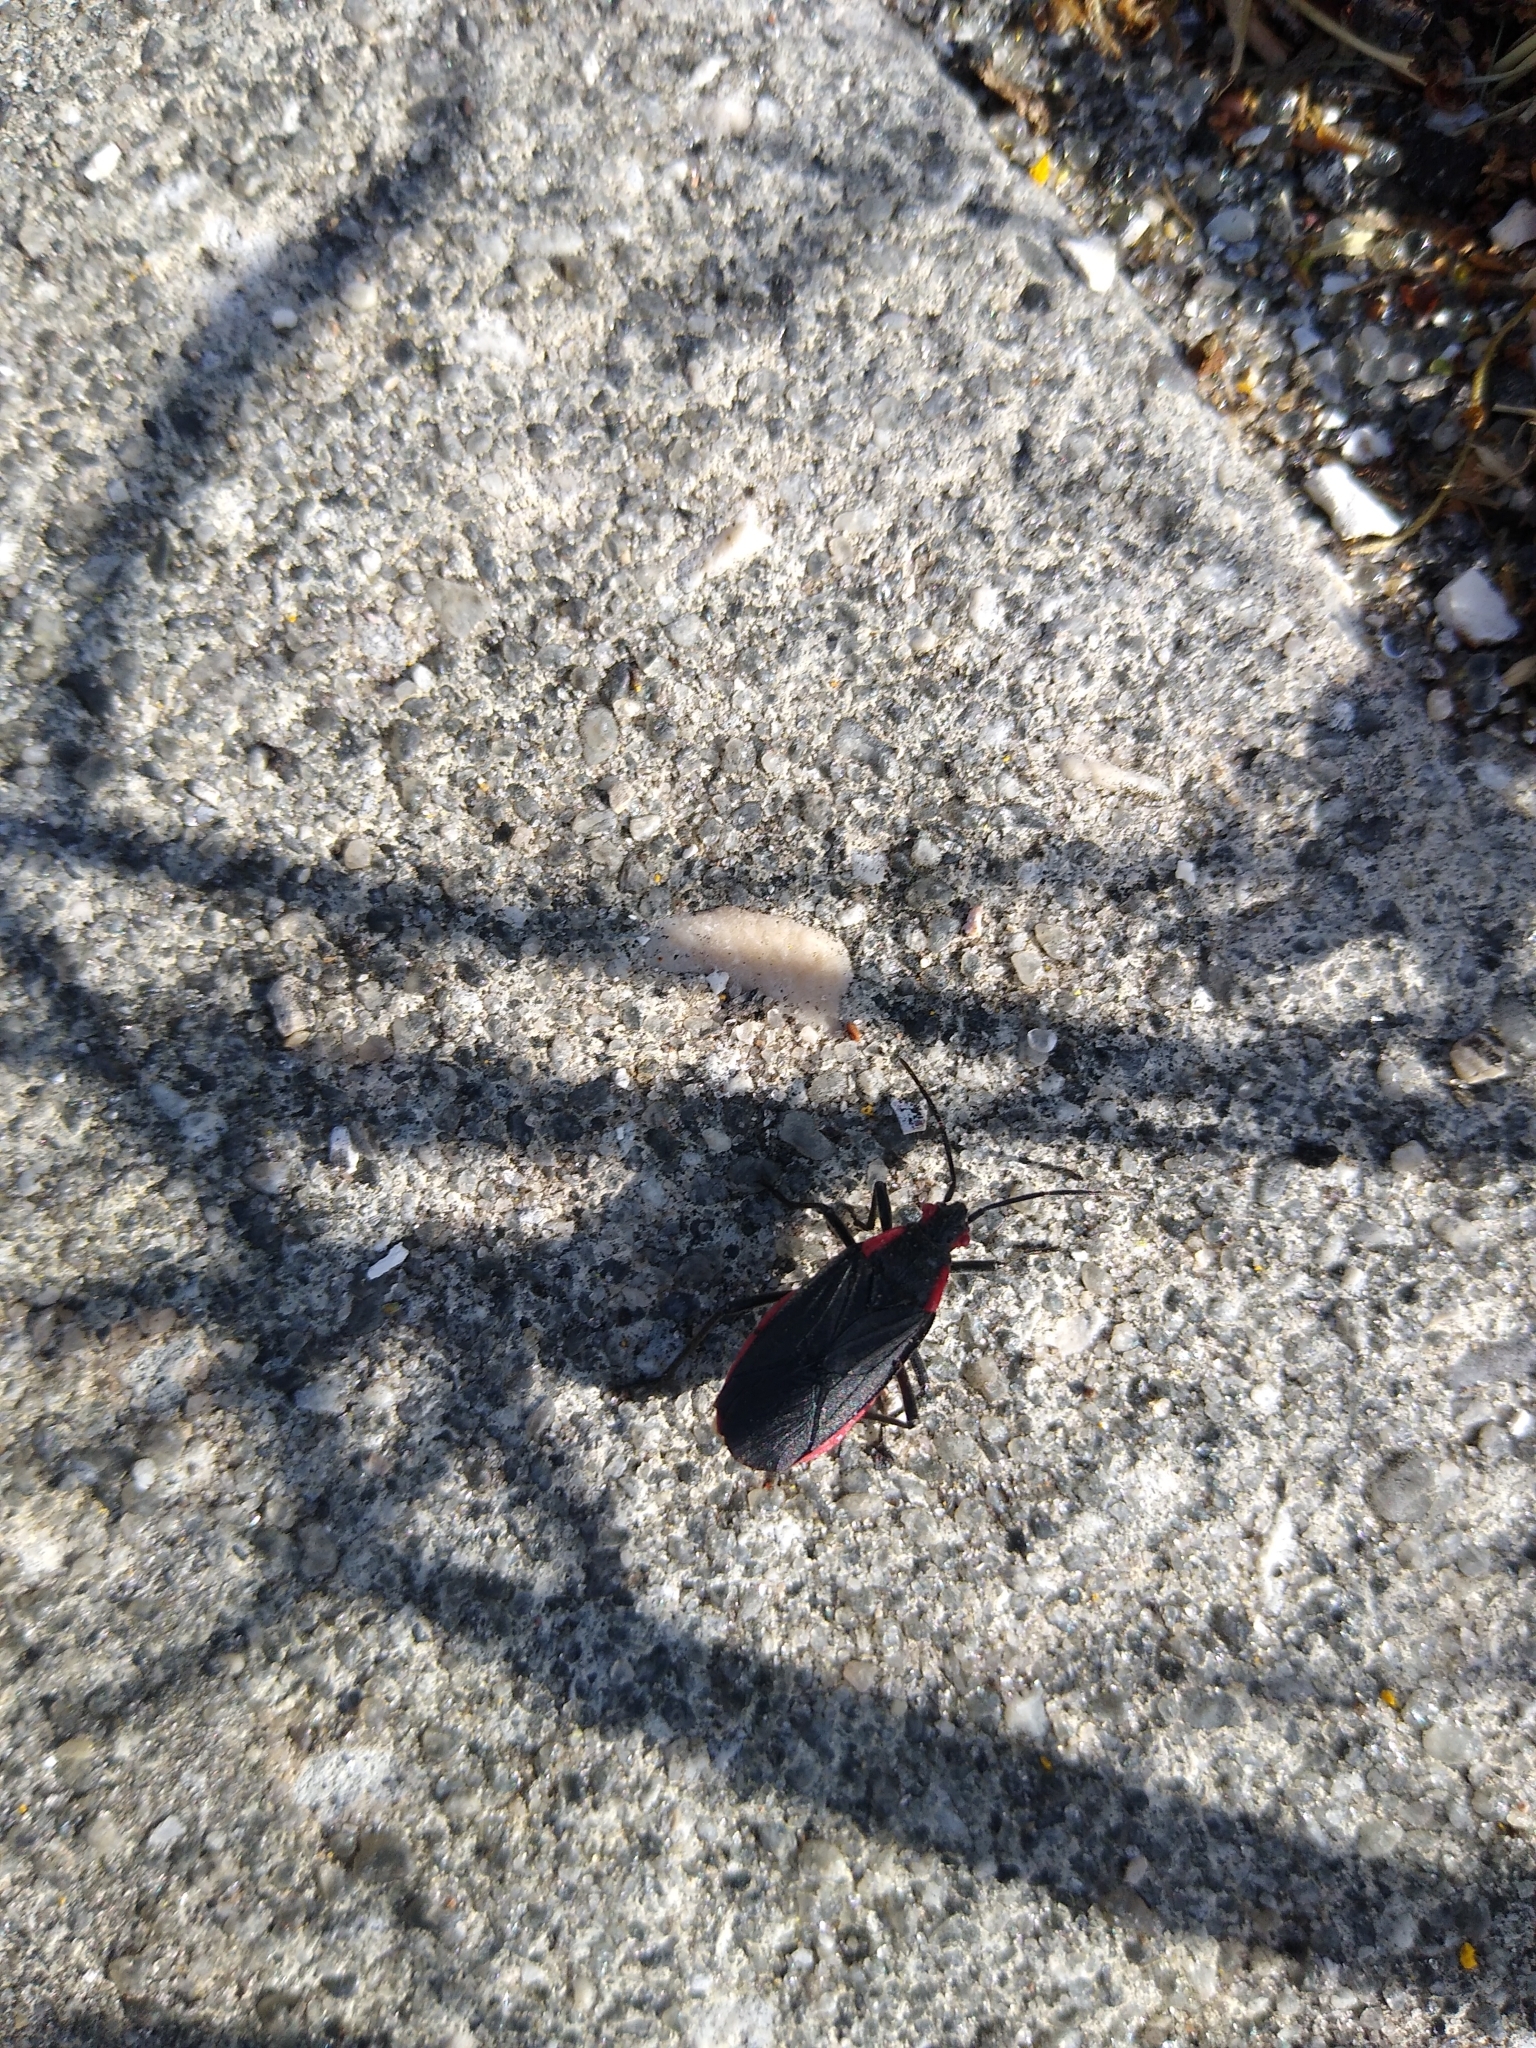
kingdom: Animalia
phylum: Arthropoda
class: Insecta
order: Hemiptera
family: Rhopalidae
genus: Jadera
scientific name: Jadera haematoloma
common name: Red-shouldered bug
